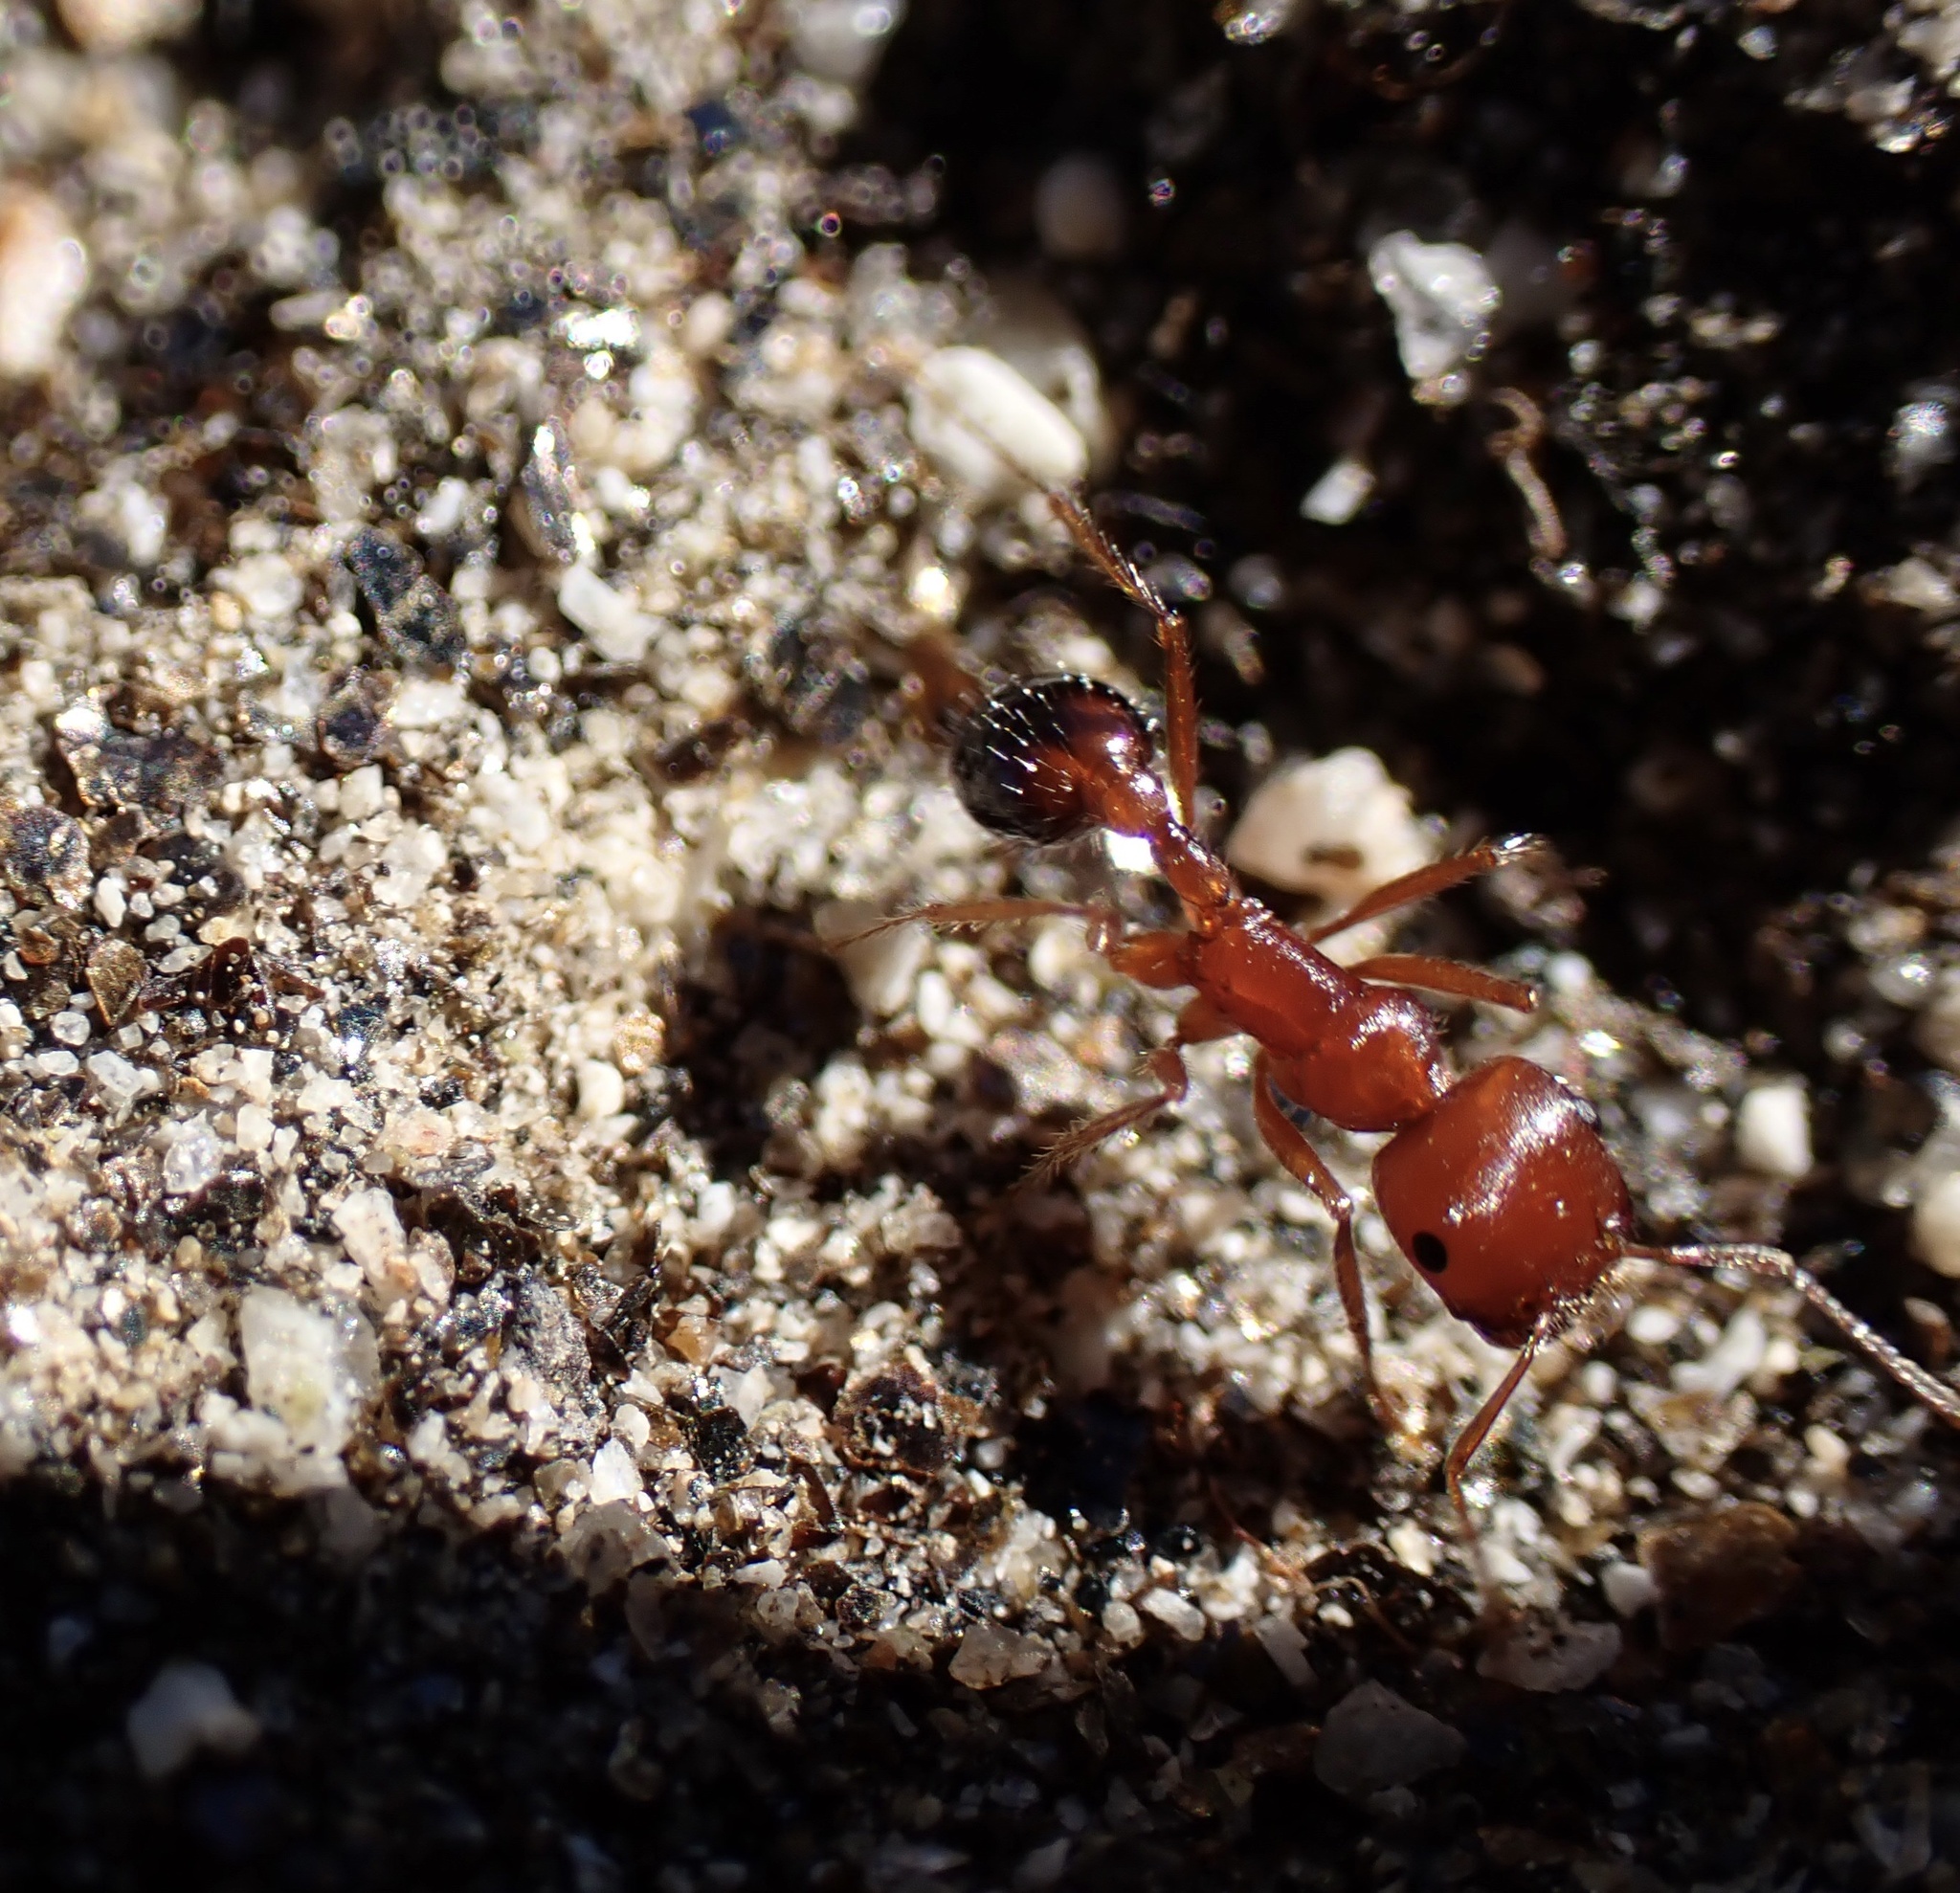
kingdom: Animalia
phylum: Arthropoda
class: Insecta
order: Hymenoptera
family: Formicidae
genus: Pogonomyrmex
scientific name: Pogonomyrmex californicus
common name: California harvester ant
